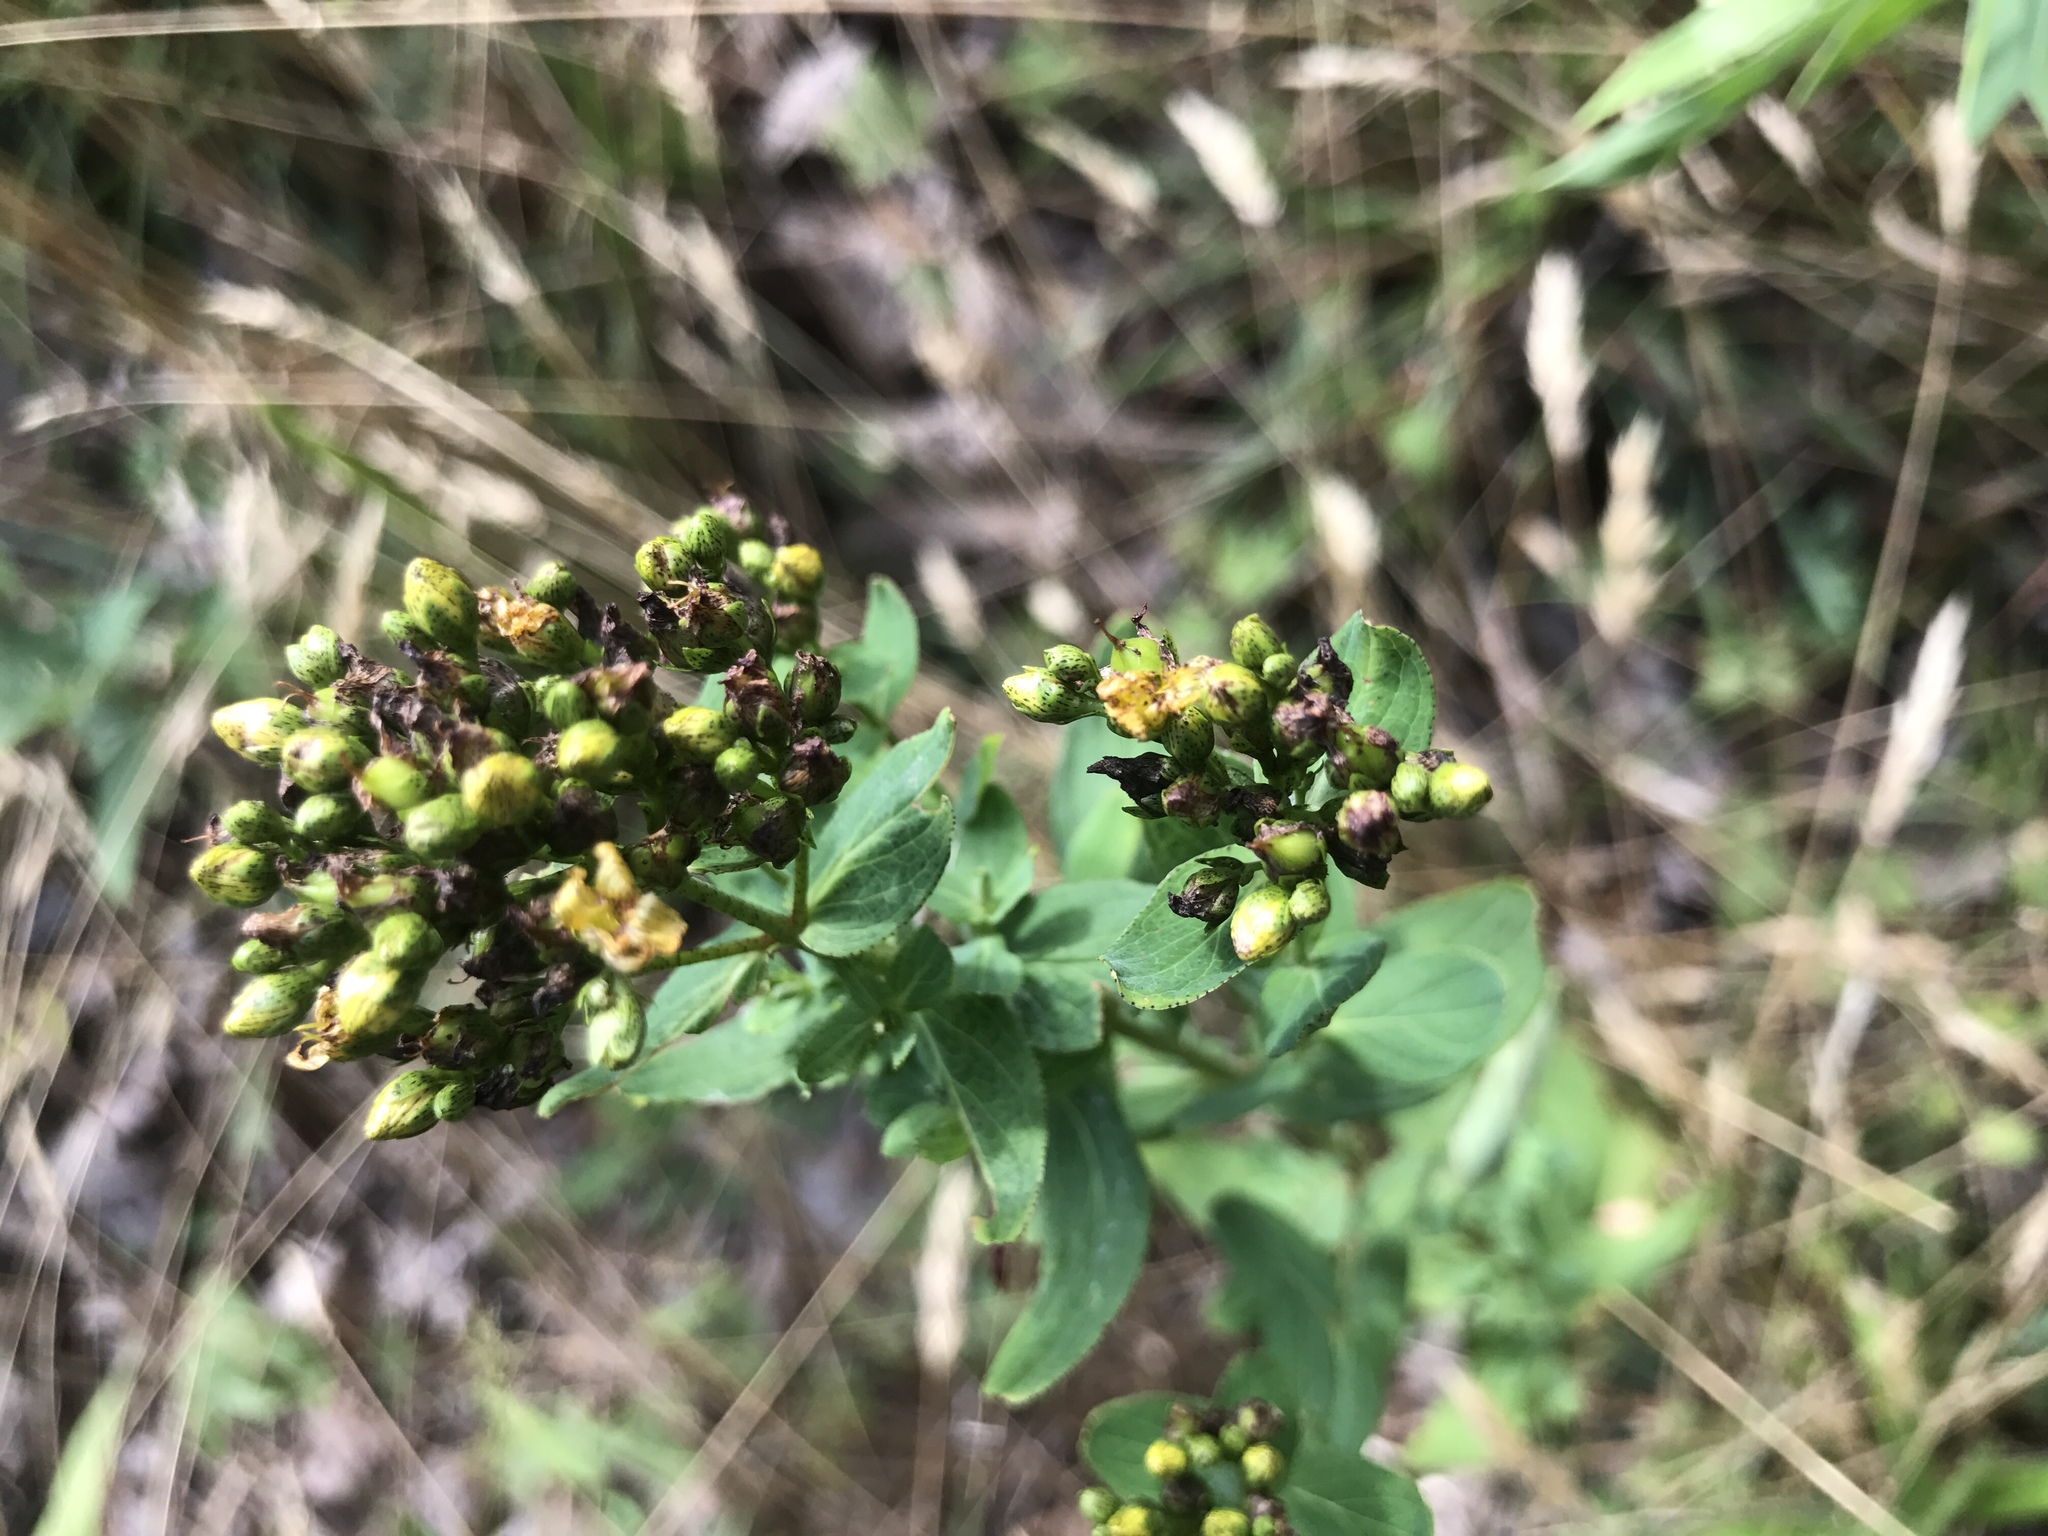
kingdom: Plantae
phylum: Tracheophyta
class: Magnoliopsida
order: Malpighiales
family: Hypericaceae
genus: Hypericum
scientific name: Hypericum punctatum
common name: Spotted st. john's-wort
